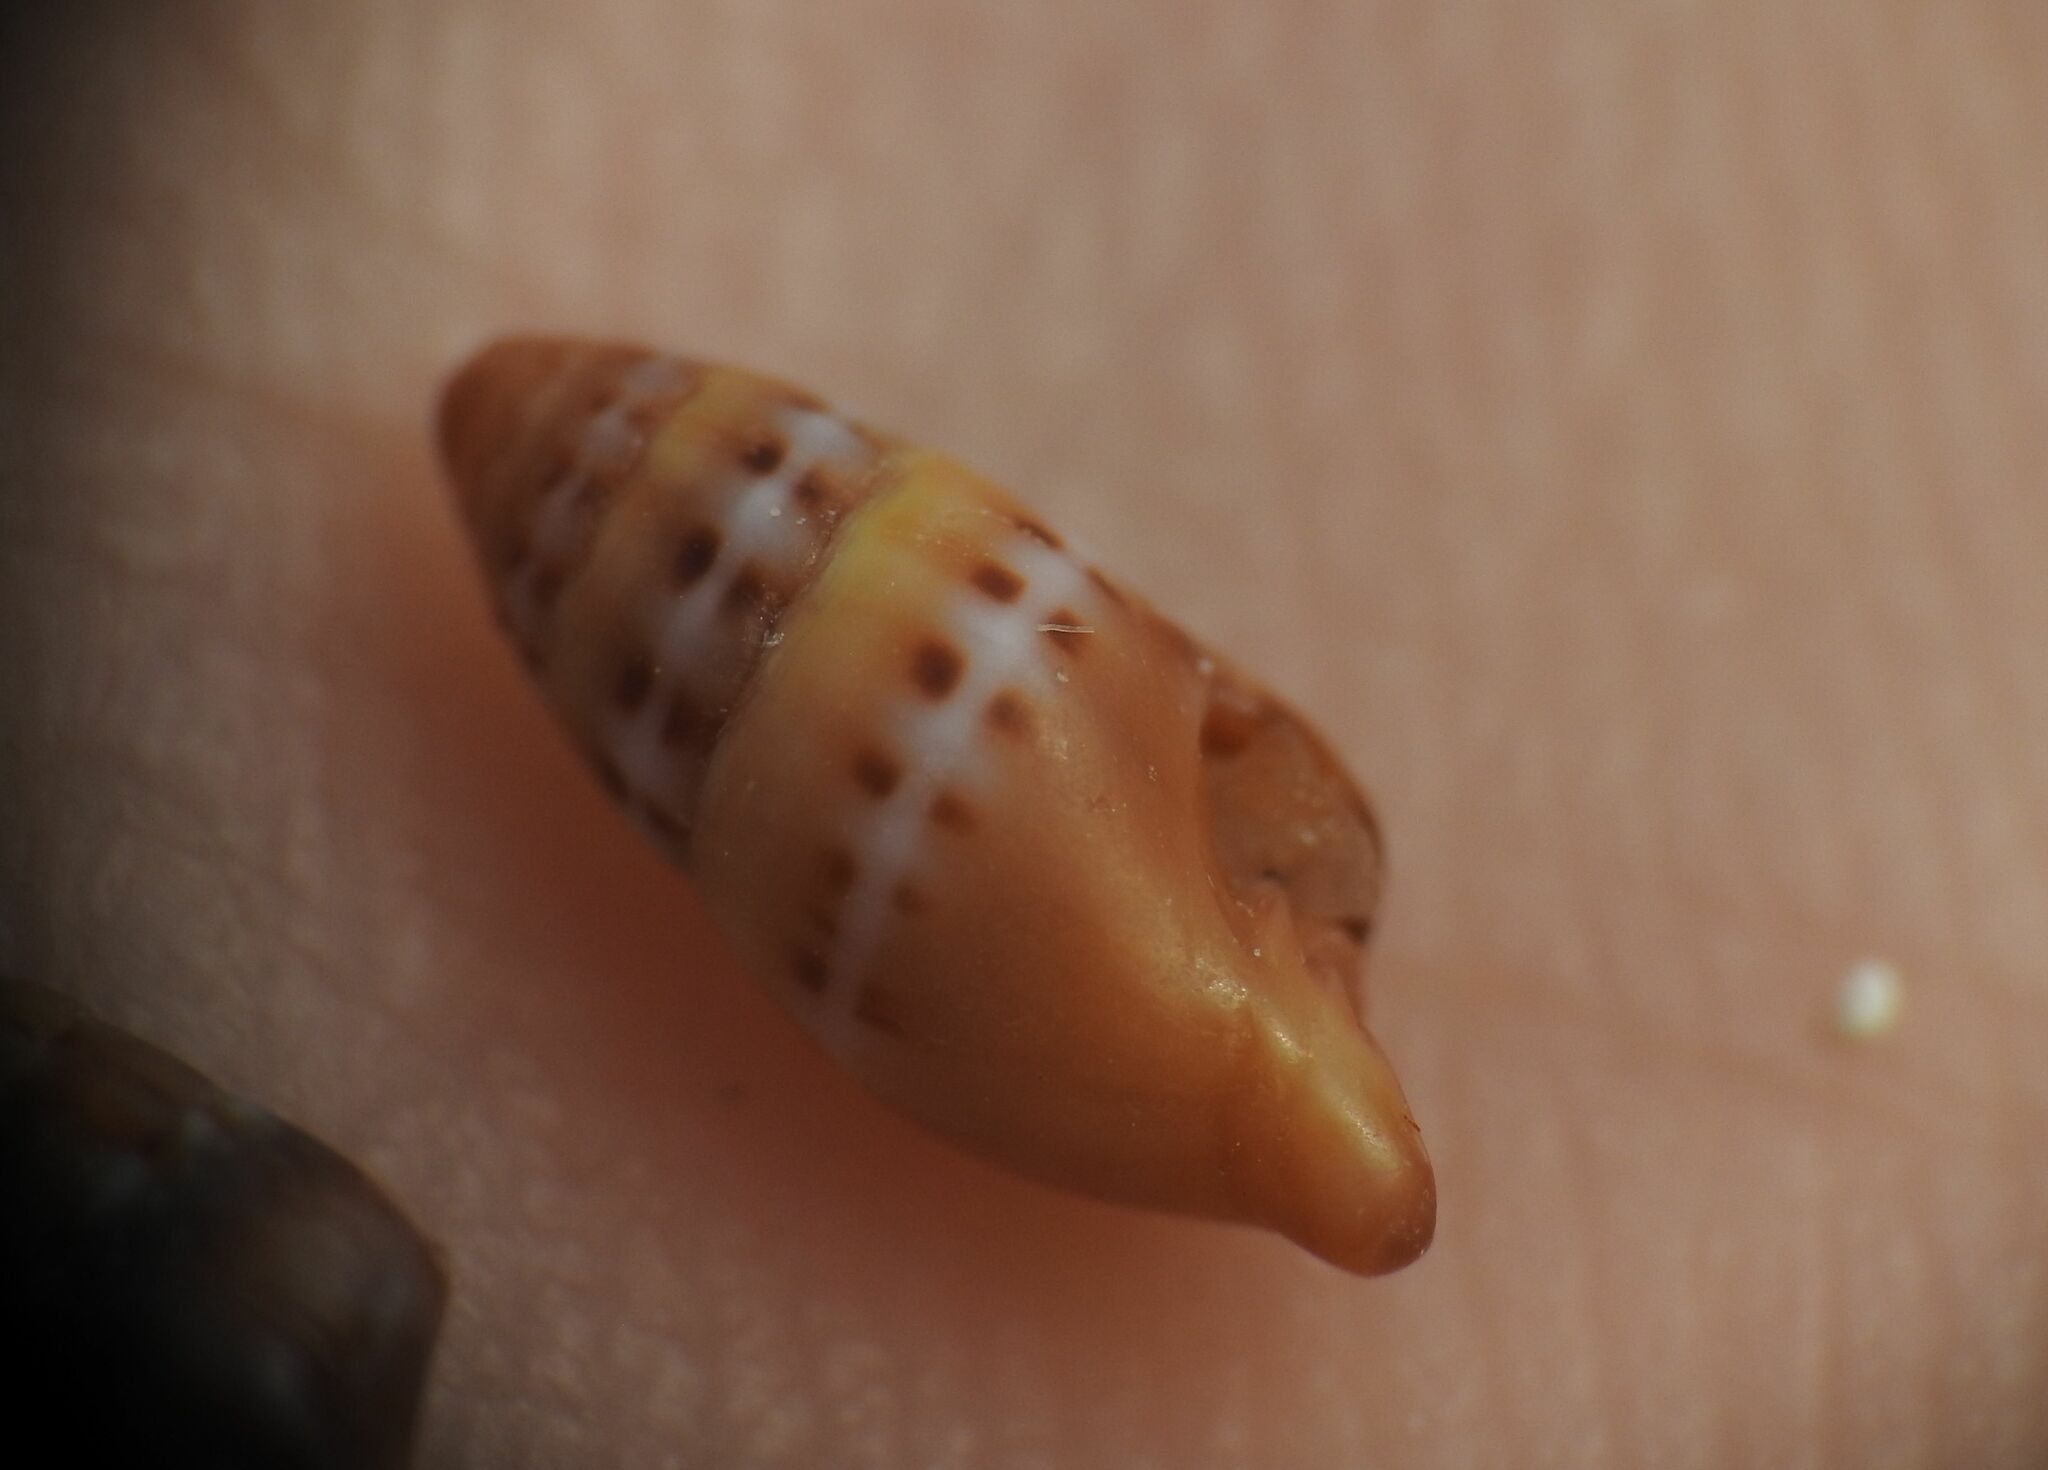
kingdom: Animalia
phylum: Mollusca
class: Gastropoda
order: Neogastropoda
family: Costellariidae
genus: Pusia
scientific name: Pusia tricolor
